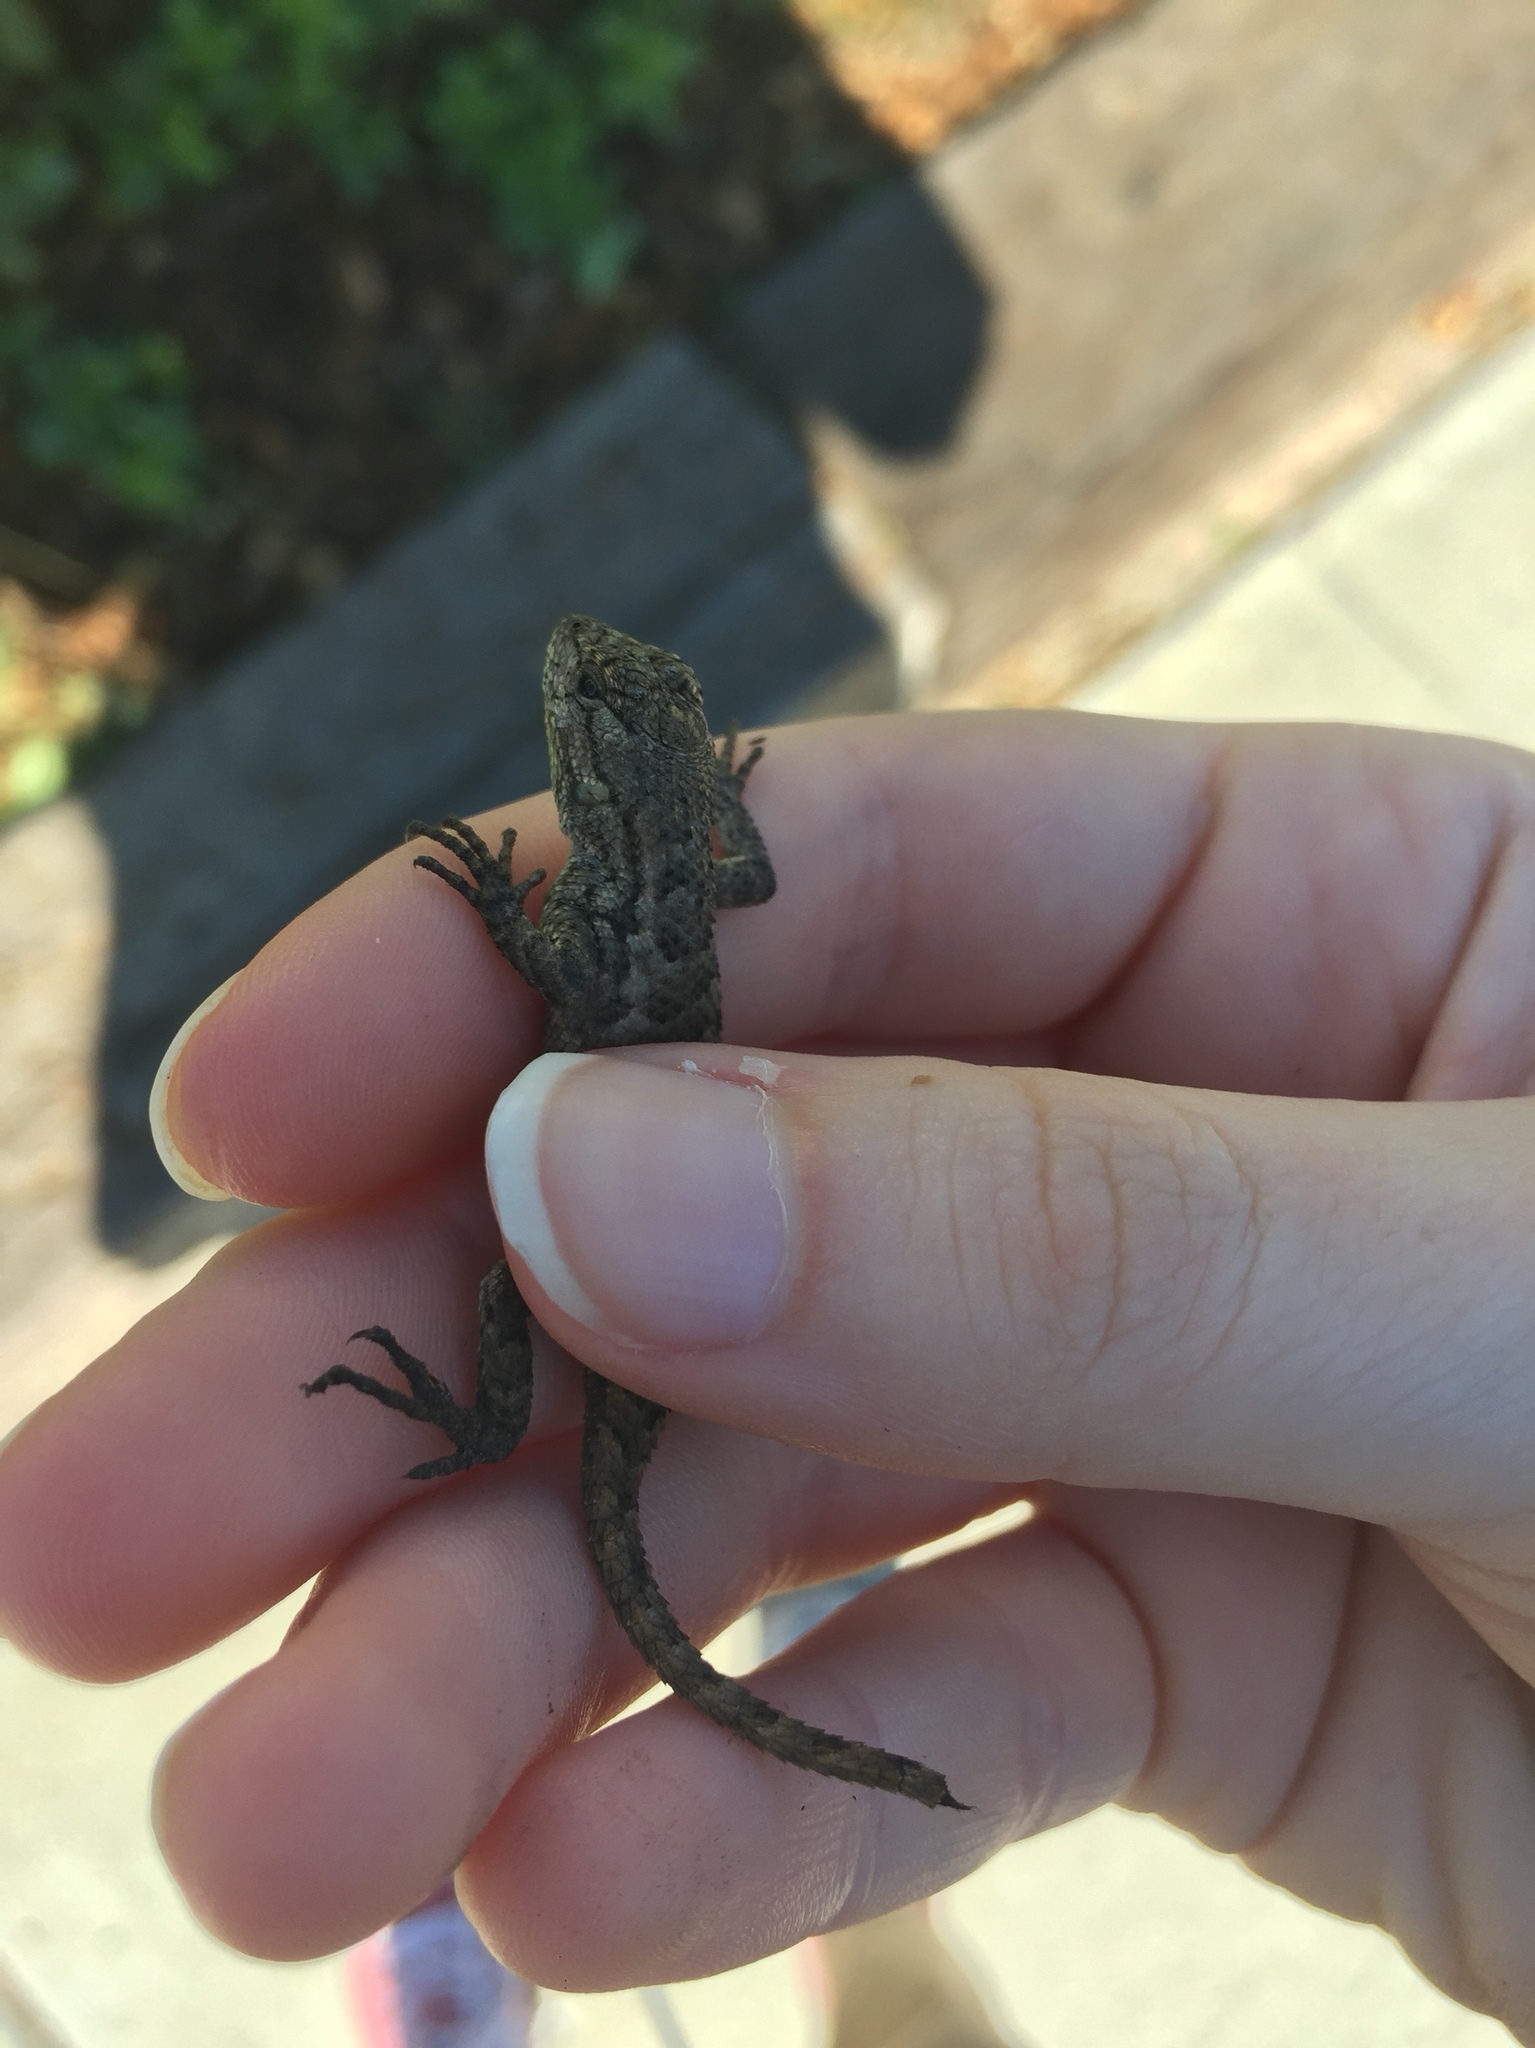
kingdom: Animalia
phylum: Chordata
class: Squamata
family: Phrynosomatidae
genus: Sceloporus
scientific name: Sceloporus occidentalis
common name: Western fence lizard
